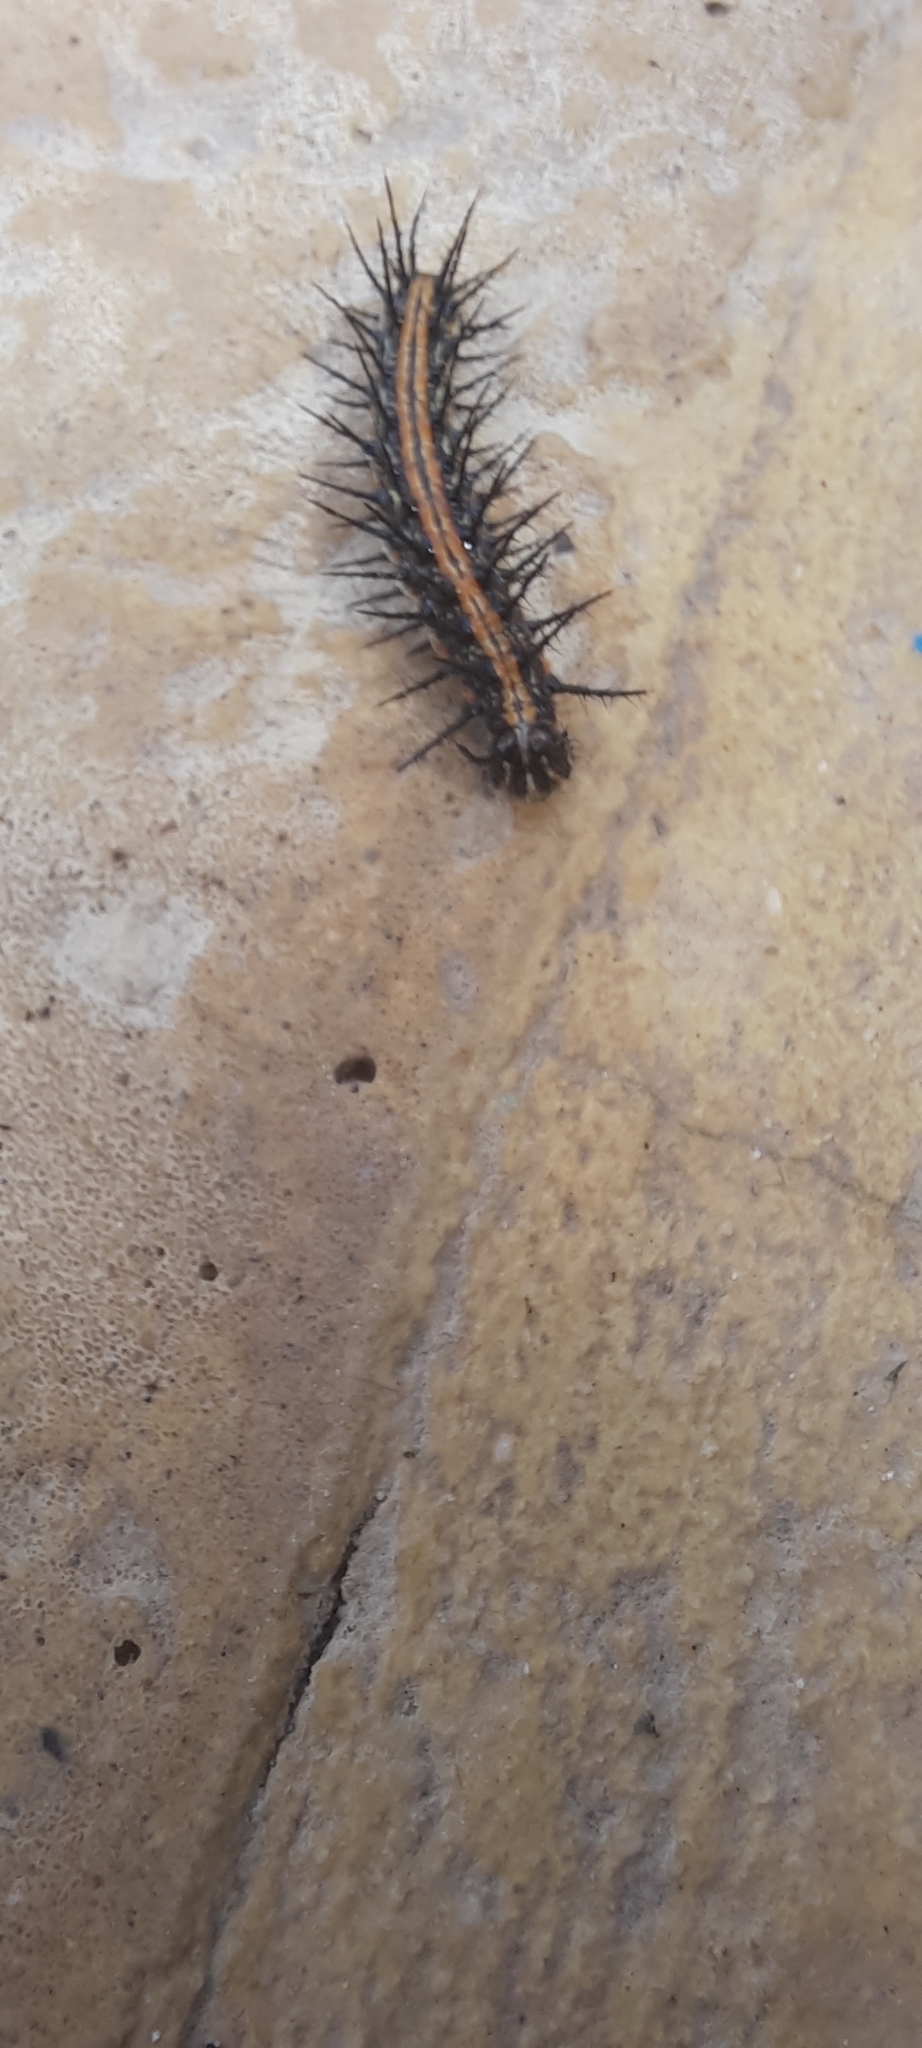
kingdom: Animalia
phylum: Arthropoda
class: Insecta
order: Lepidoptera
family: Nymphalidae
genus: Dione
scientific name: Dione vanillae
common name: Gulf fritillary
